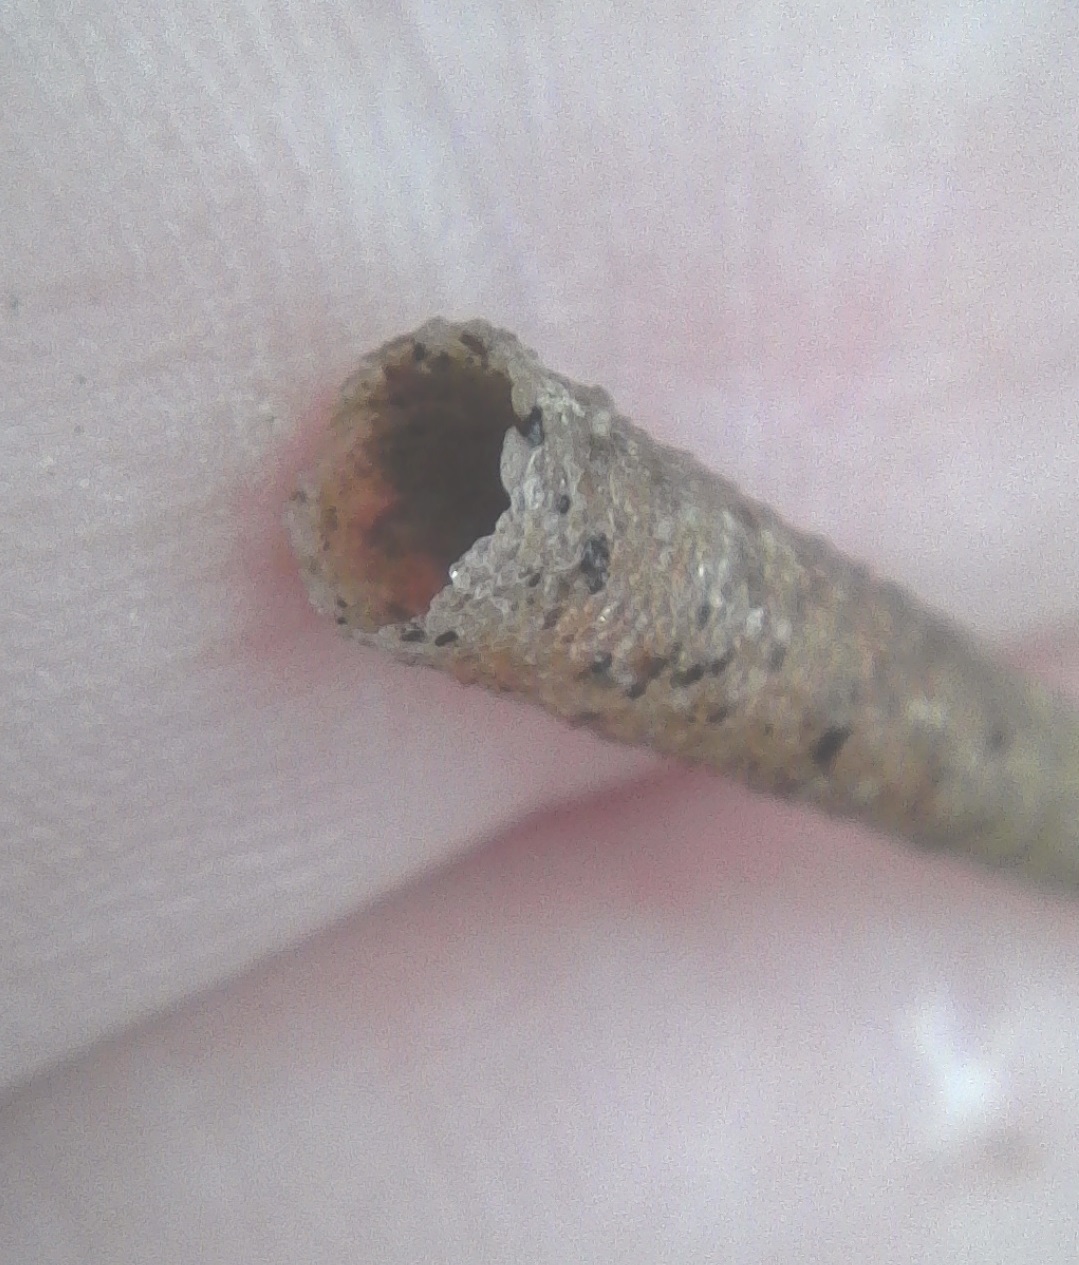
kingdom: Animalia
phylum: Annelida
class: Polychaeta
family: Pectinariidae
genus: Lagis
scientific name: Lagis australis
